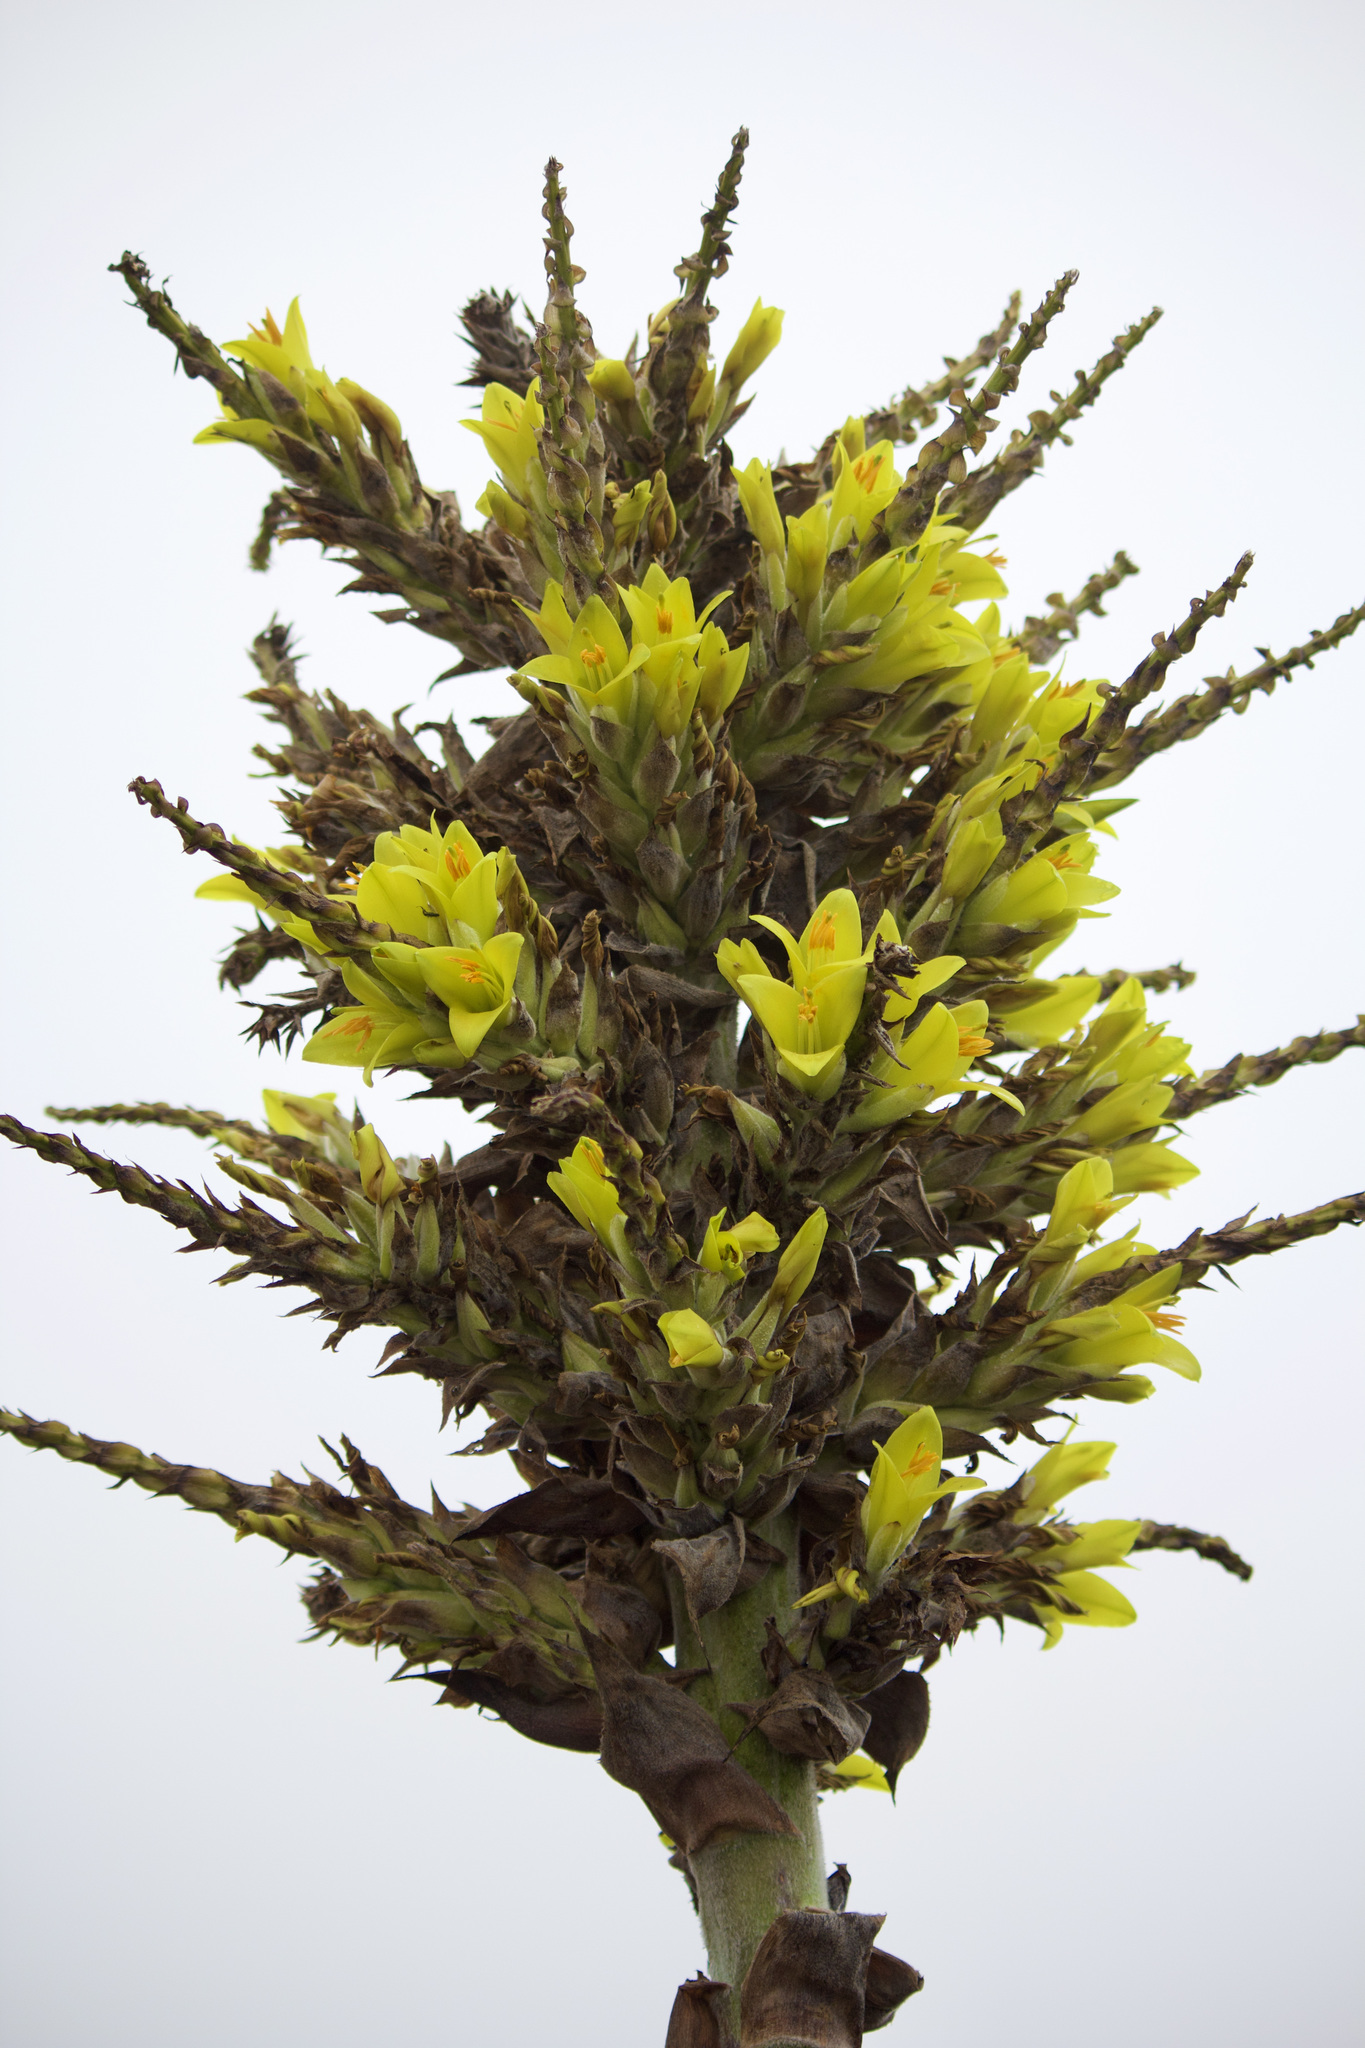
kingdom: Plantae
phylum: Tracheophyta
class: Liliopsida
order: Poales
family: Bromeliaceae
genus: Puya
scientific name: Puya chilensis
